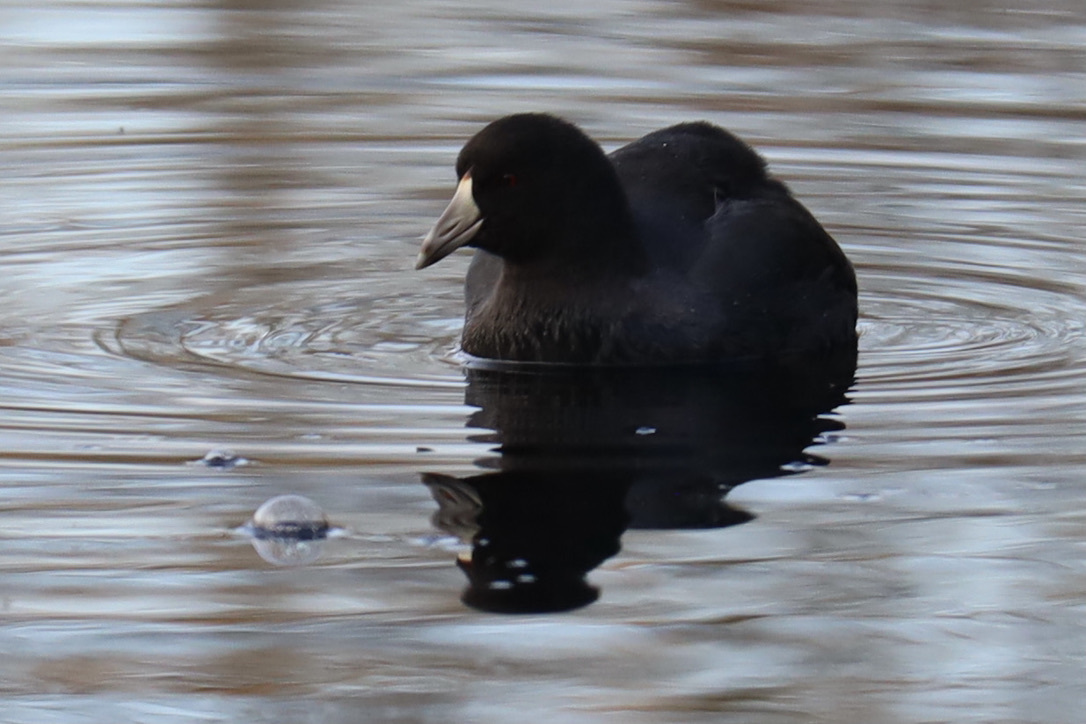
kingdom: Animalia
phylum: Chordata
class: Aves
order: Gruiformes
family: Rallidae
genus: Fulica
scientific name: Fulica americana
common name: American coot
